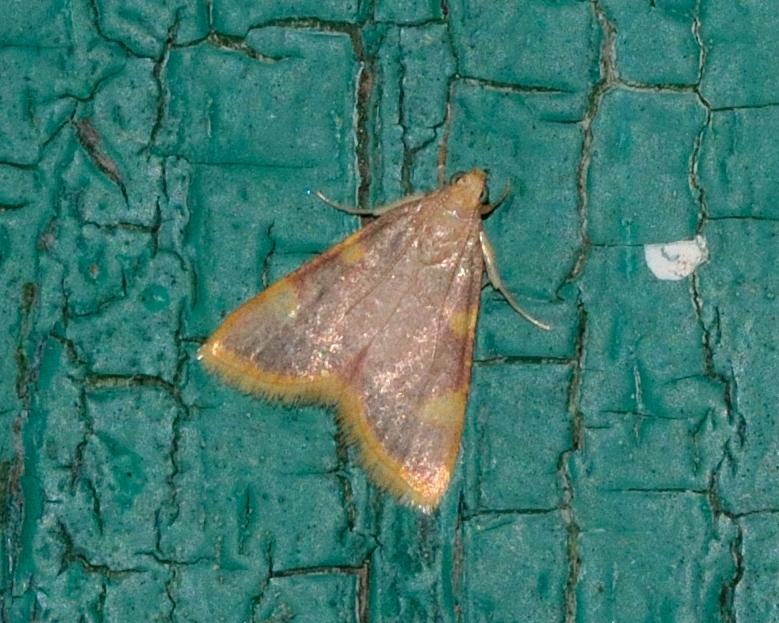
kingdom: Animalia
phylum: Arthropoda
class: Insecta
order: Lepidoptera
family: Pyralidae
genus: Hypsopygia
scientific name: Hypsopygia costalis
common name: Gold triangle
